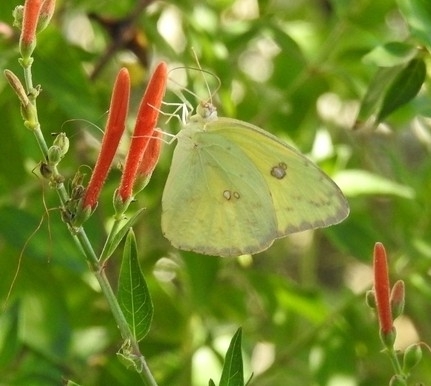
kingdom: Animalia
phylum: Arthropoda
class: Insecta
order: Lepidoptera
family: Pieridae
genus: Phoebis
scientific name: Phoebis sennae
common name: Cloudless sulphur
